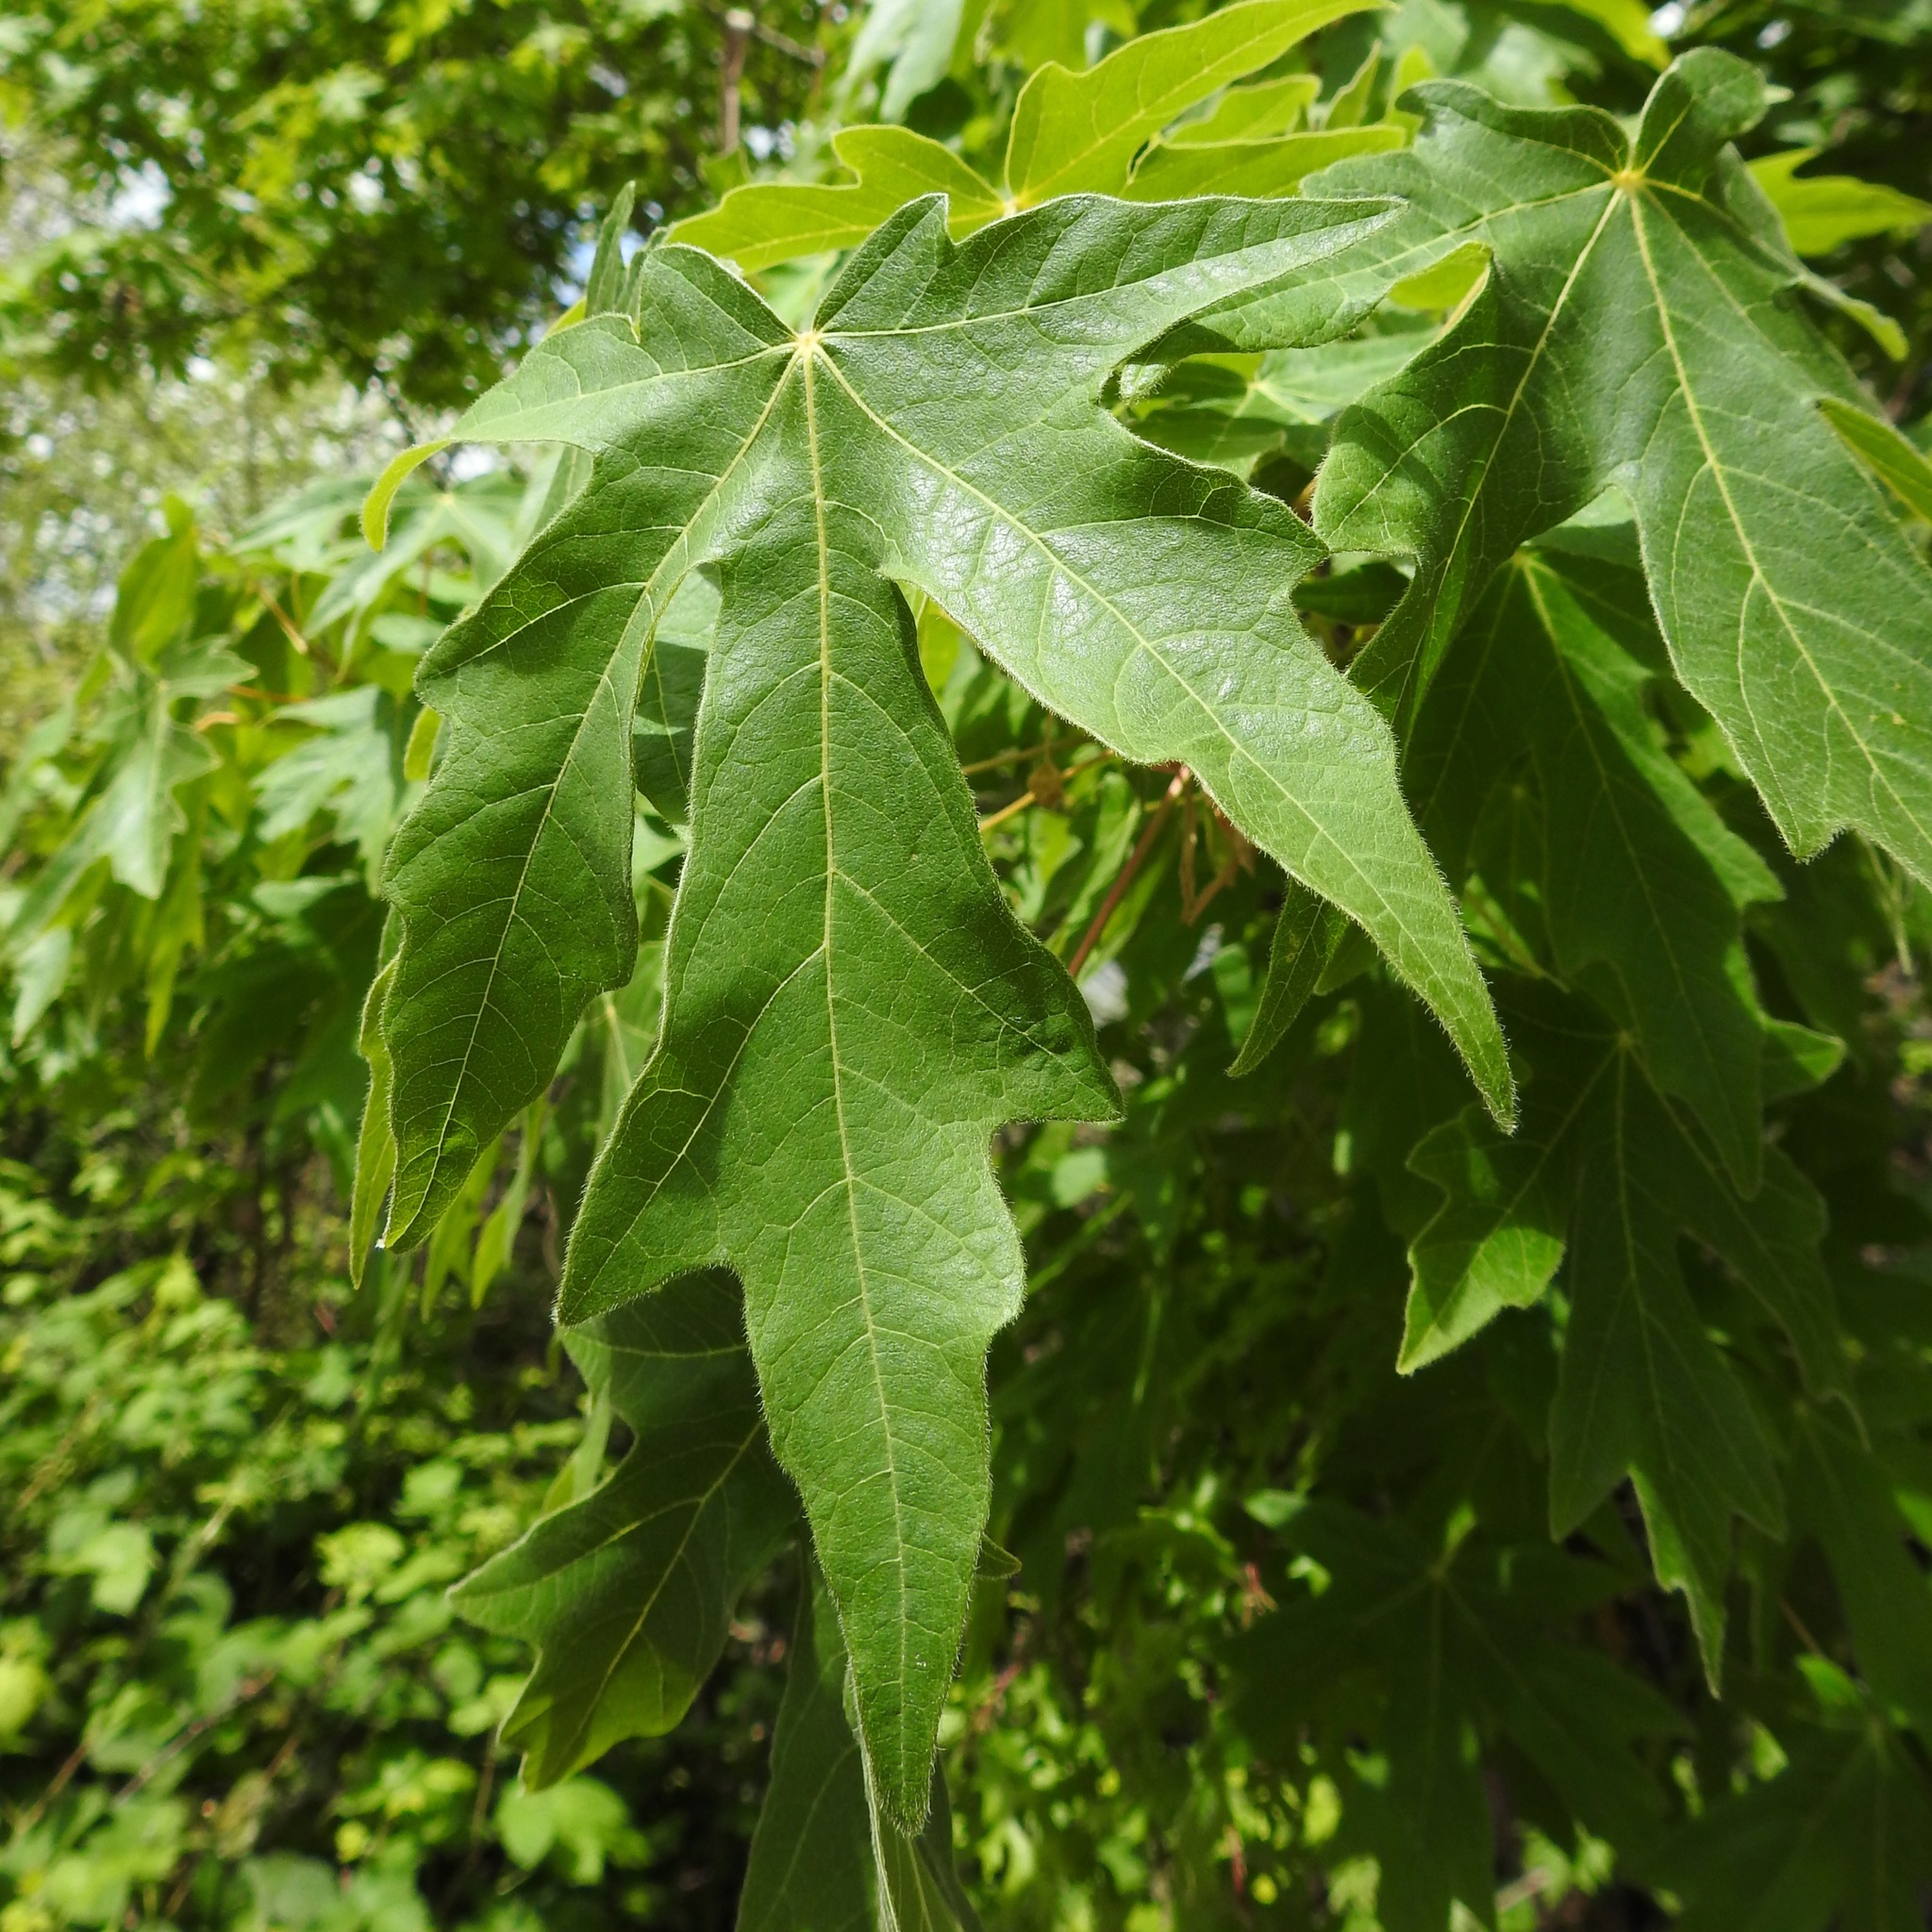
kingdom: Plantae
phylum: Tracheophyta
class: Magnoliopsida
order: Sapindales
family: Sapindaceae
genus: Acer
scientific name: Acer macrophyllum
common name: Oregon maple
